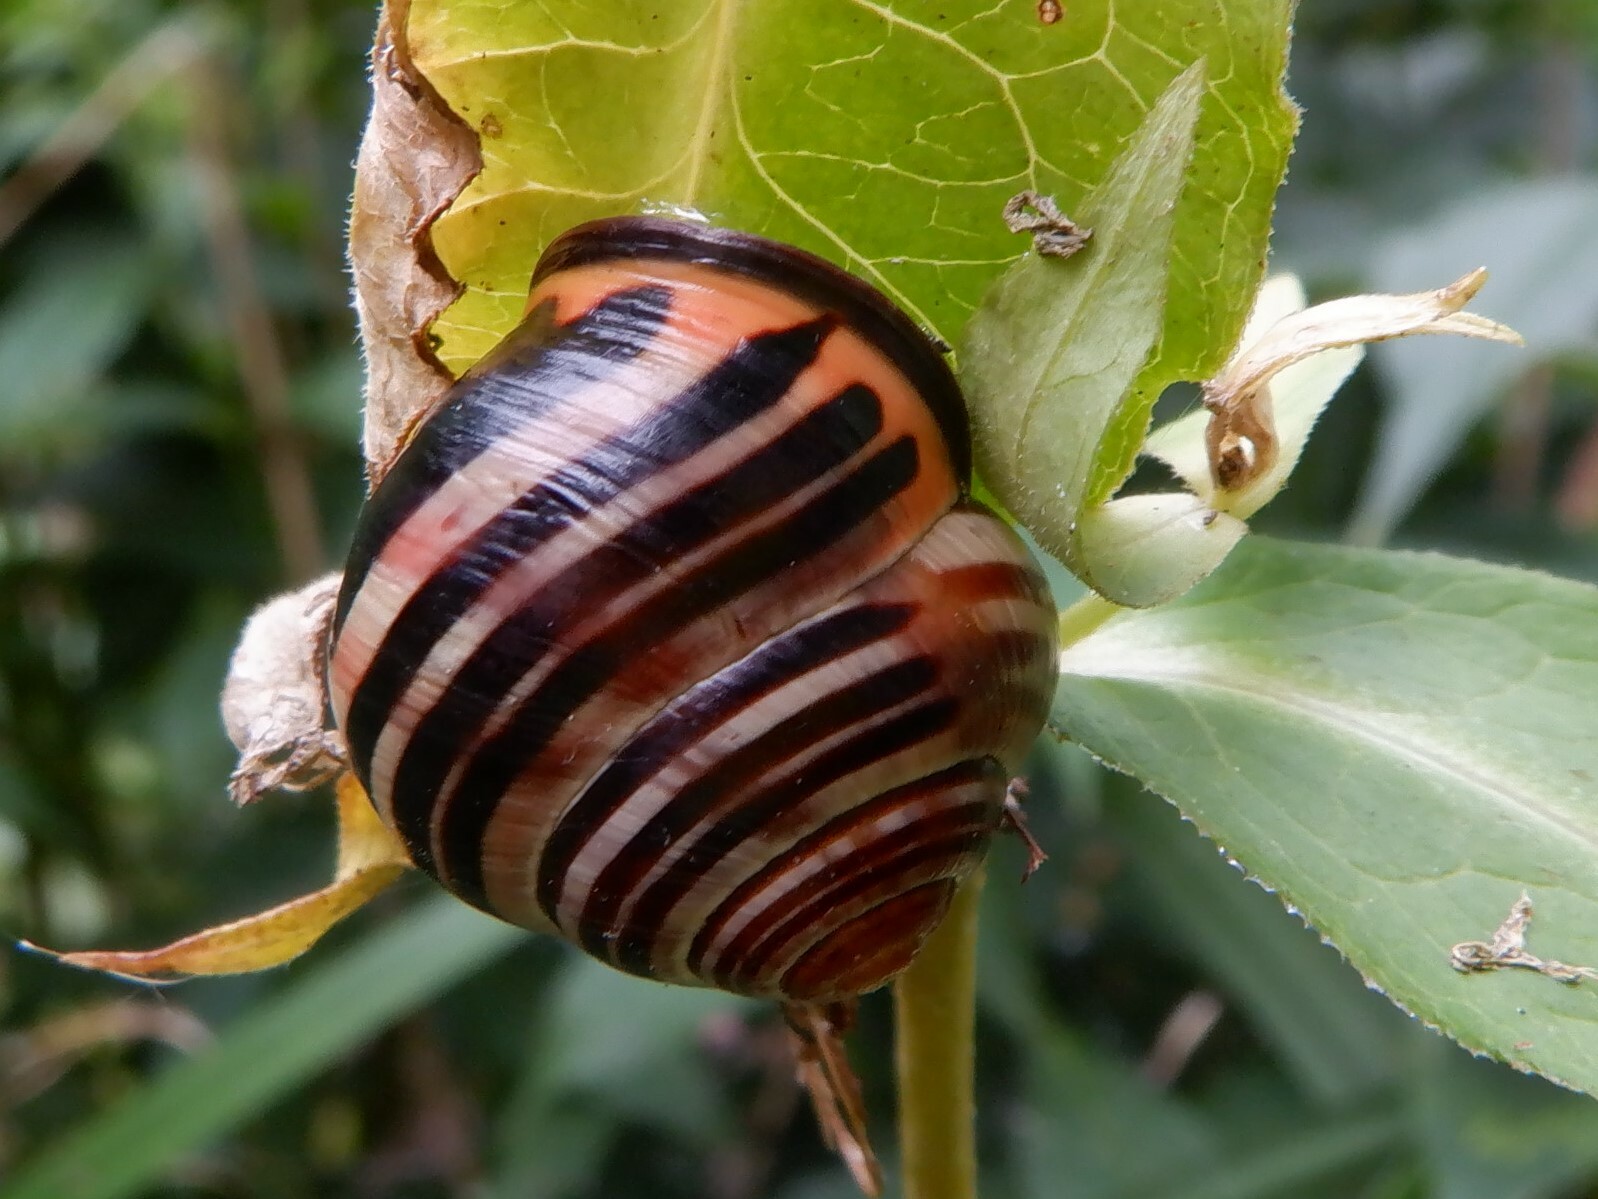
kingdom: Animalia
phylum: Mollusca
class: Gastropoda
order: Stylommatophora
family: Helicidae
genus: Cepaea
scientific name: Cepaea nemoralis
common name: Grovesnail
